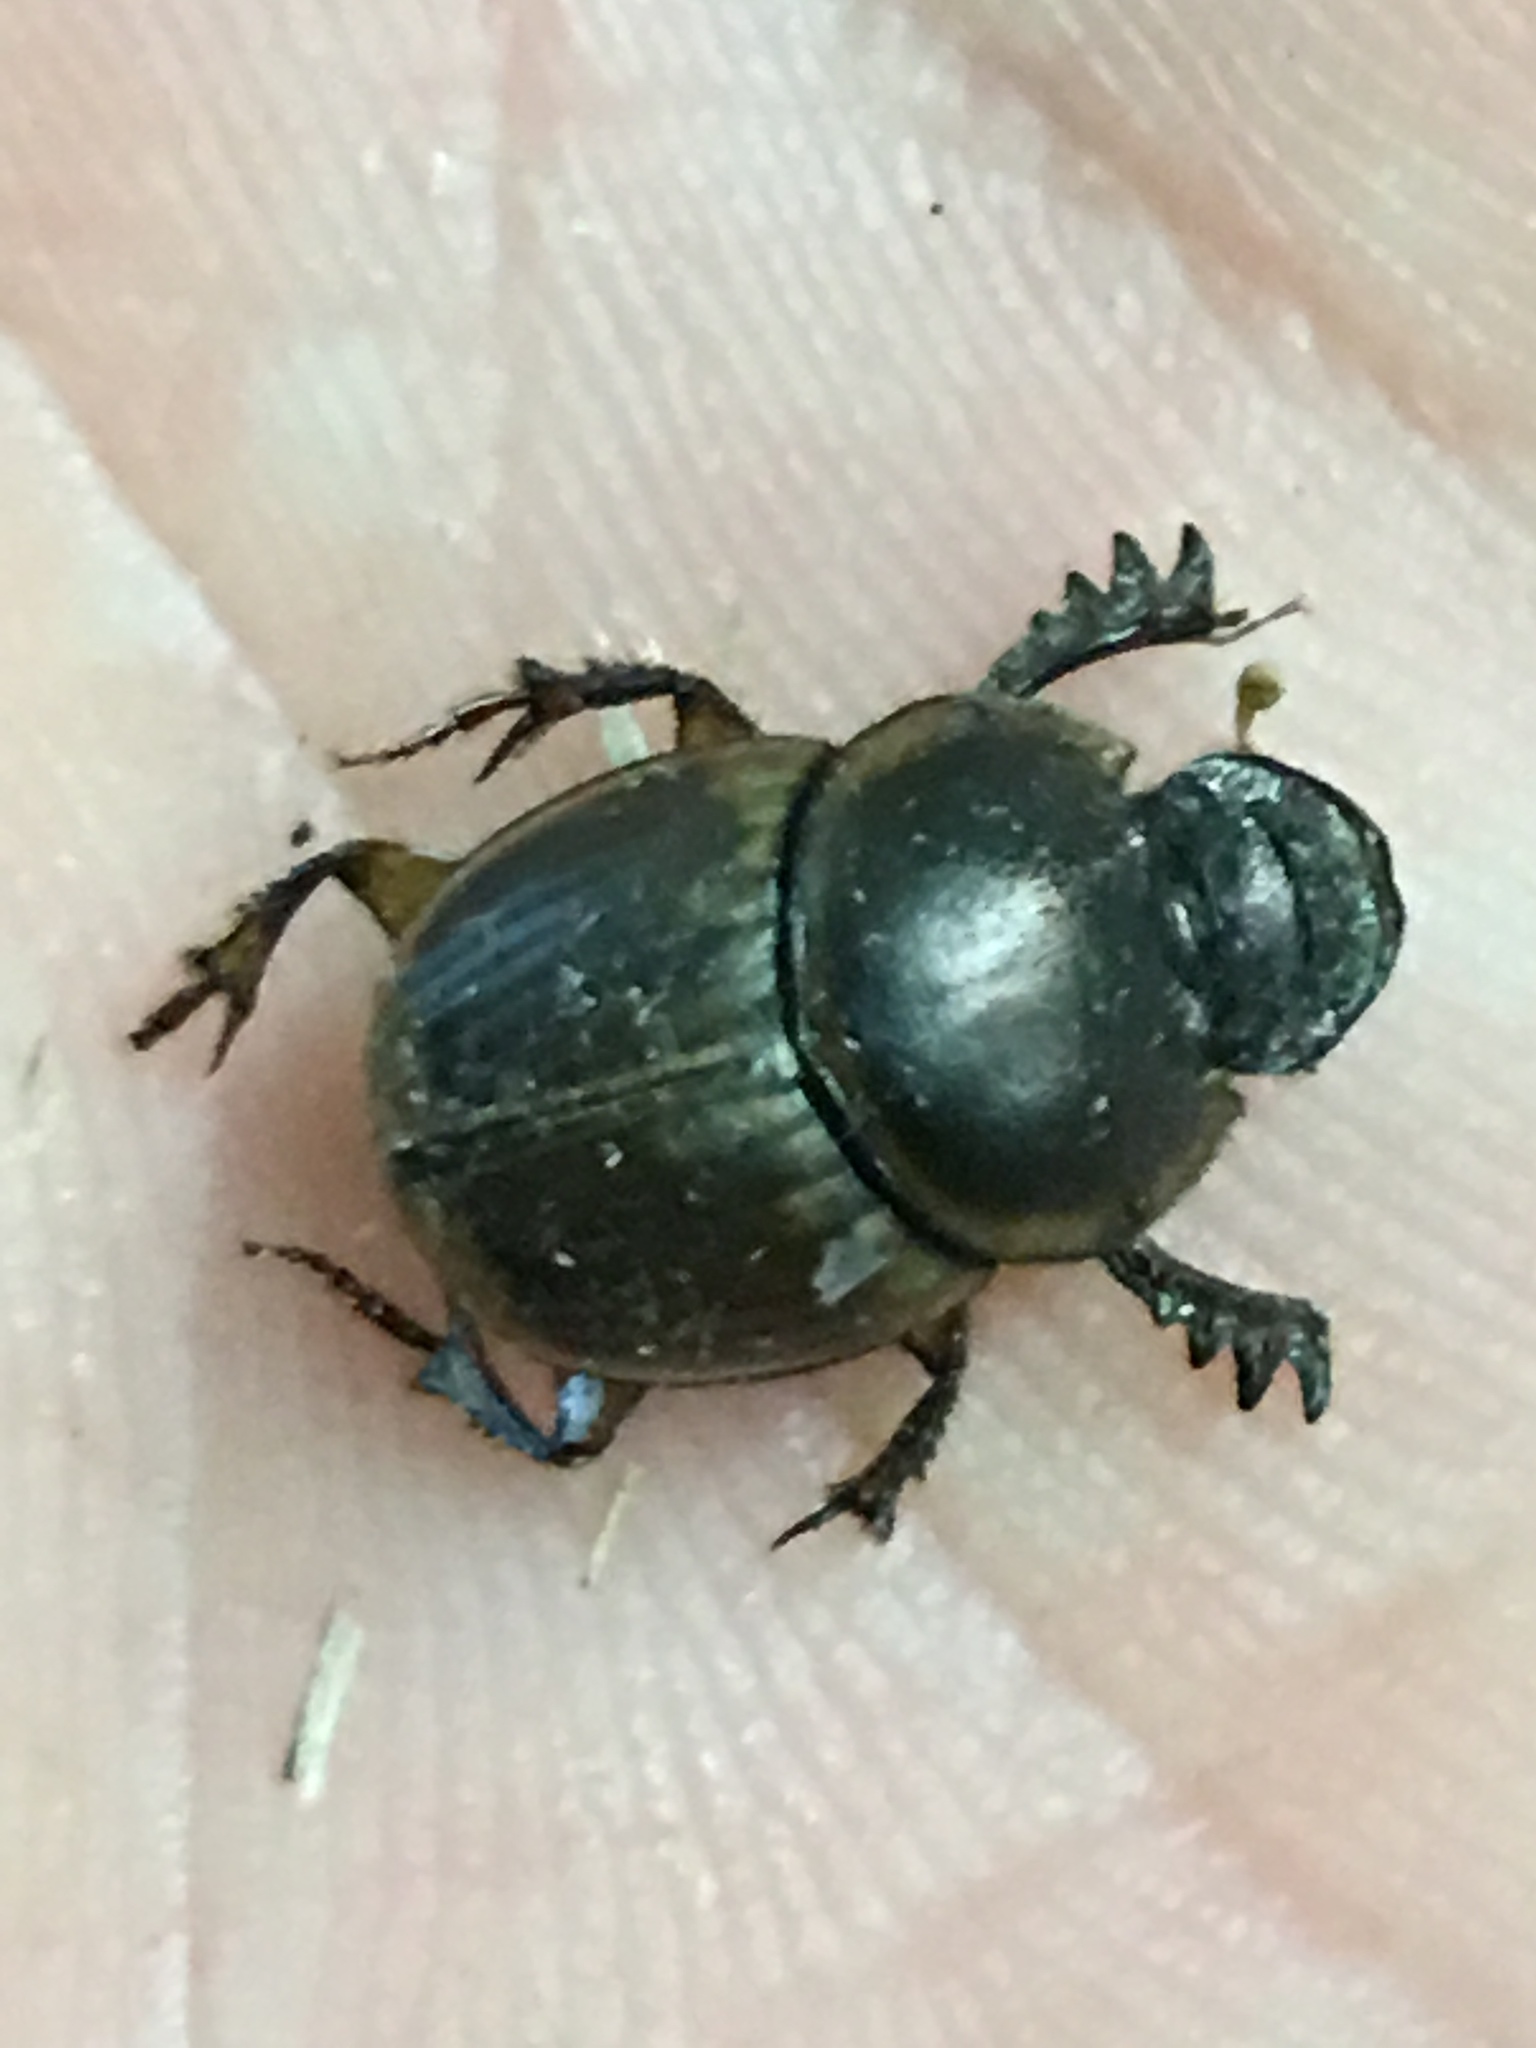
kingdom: Animalia
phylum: Arthropoda
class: Insecta
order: Coleoptera
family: Scarabaeidae
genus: Digitonthophagus
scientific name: Digitonthophagus gazella
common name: Brown dung beetle
